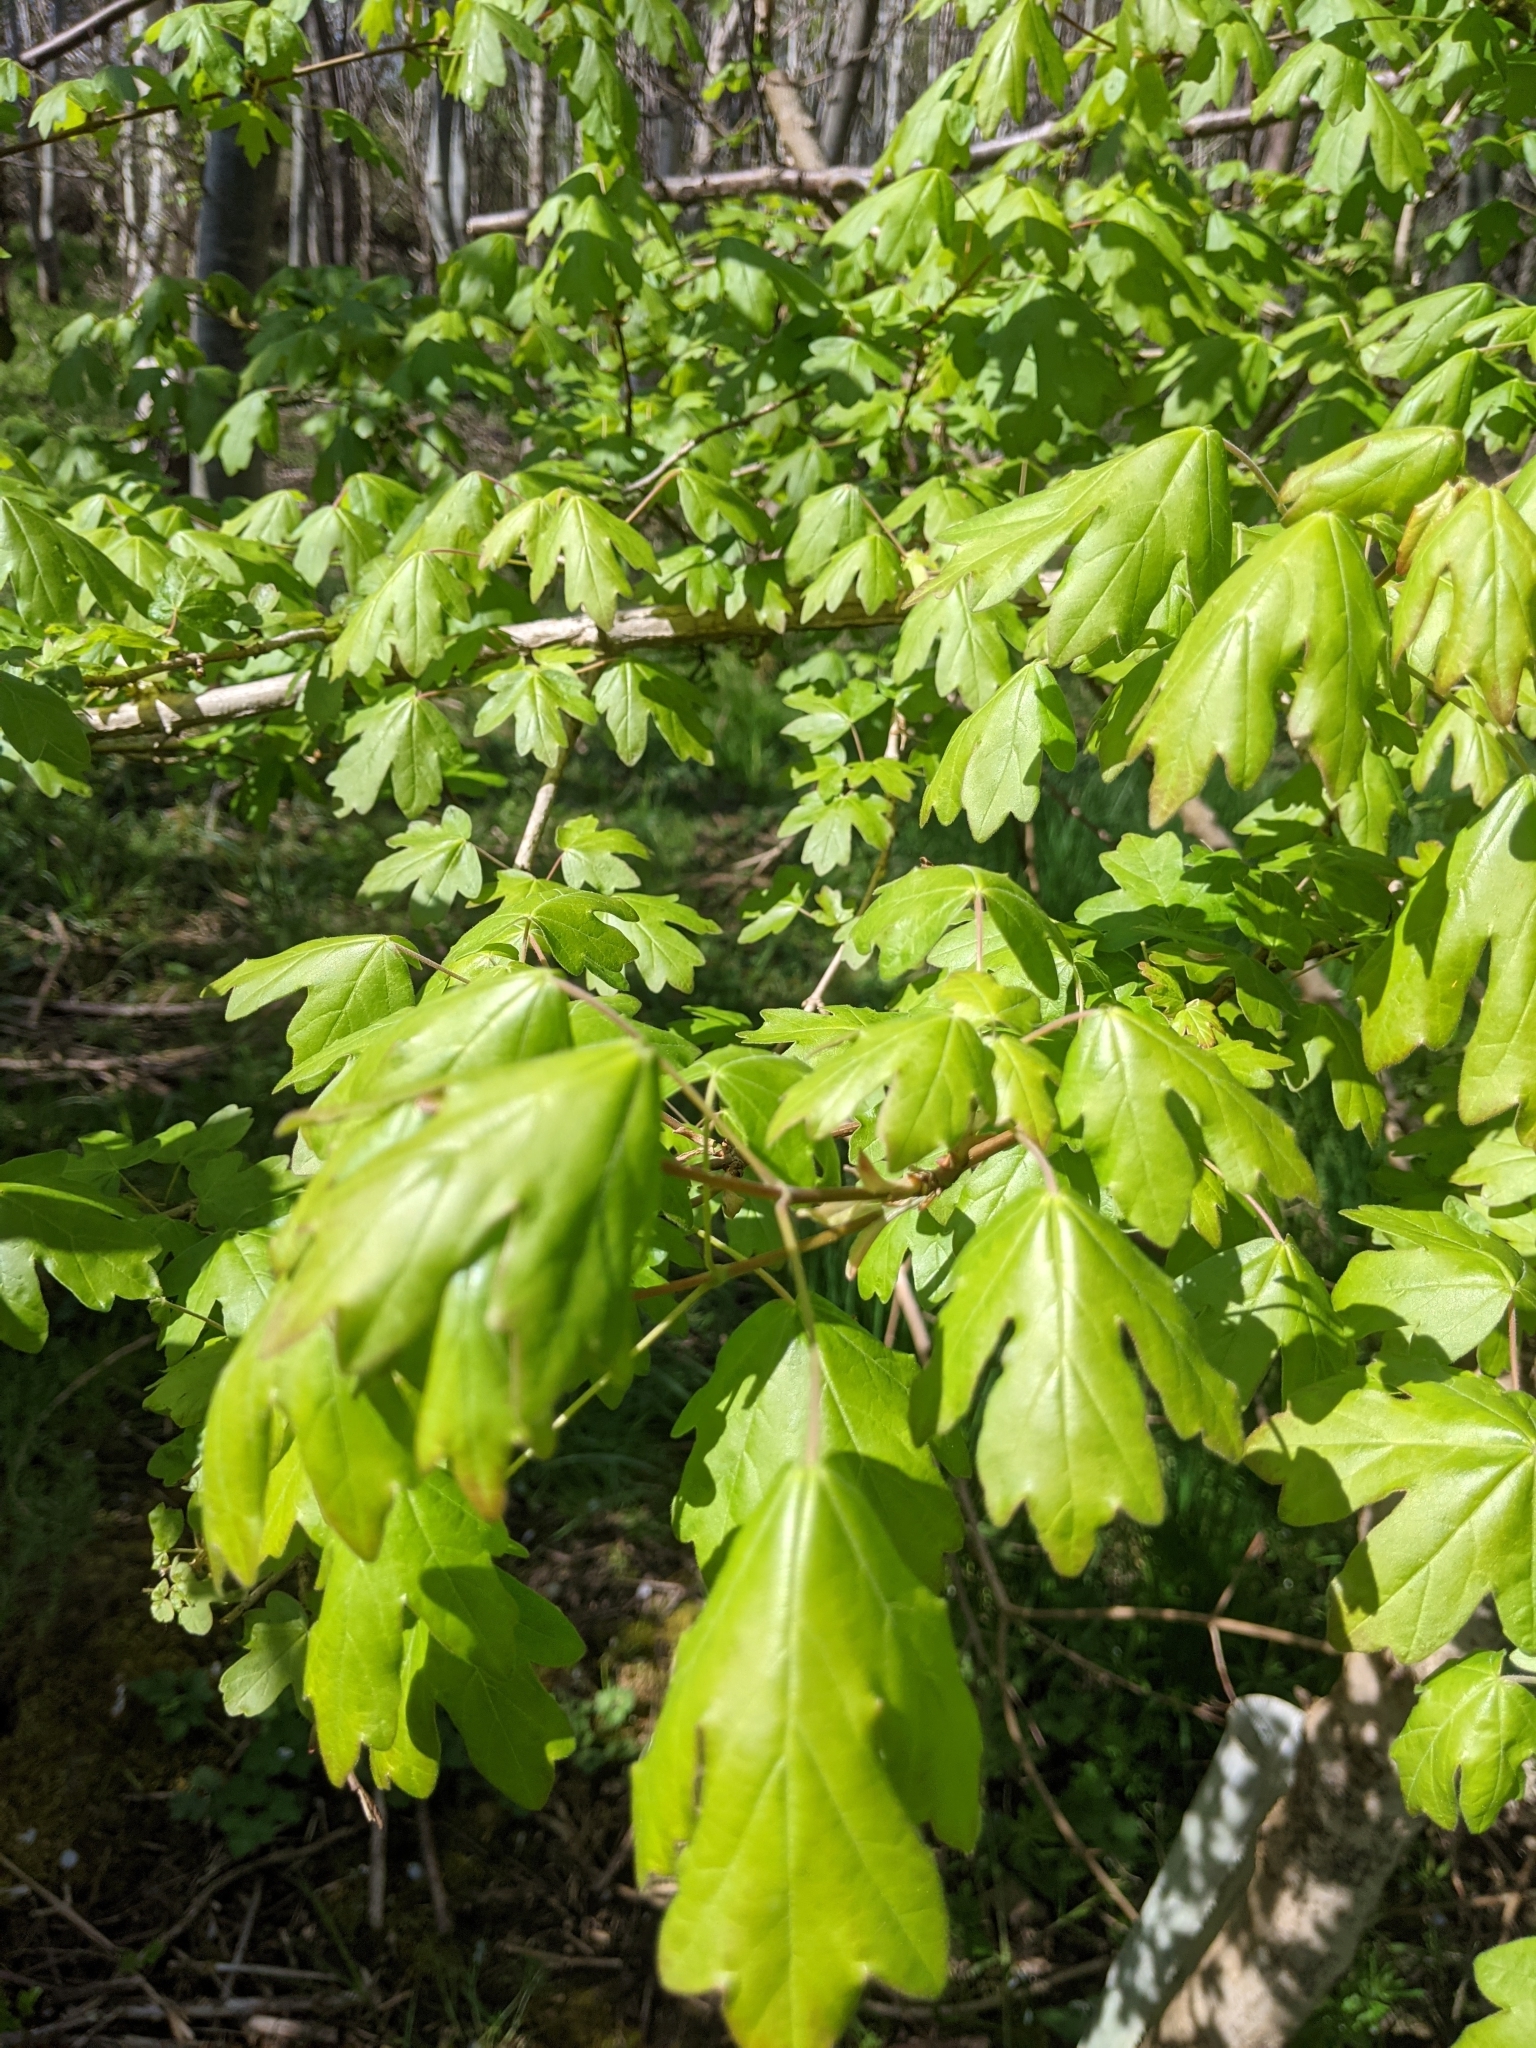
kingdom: Plantae
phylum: Tracheophyta
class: Magnoliopsida
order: Sapindales
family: Sapindaceae
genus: Acer
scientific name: Acer campestre
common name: Field maple
